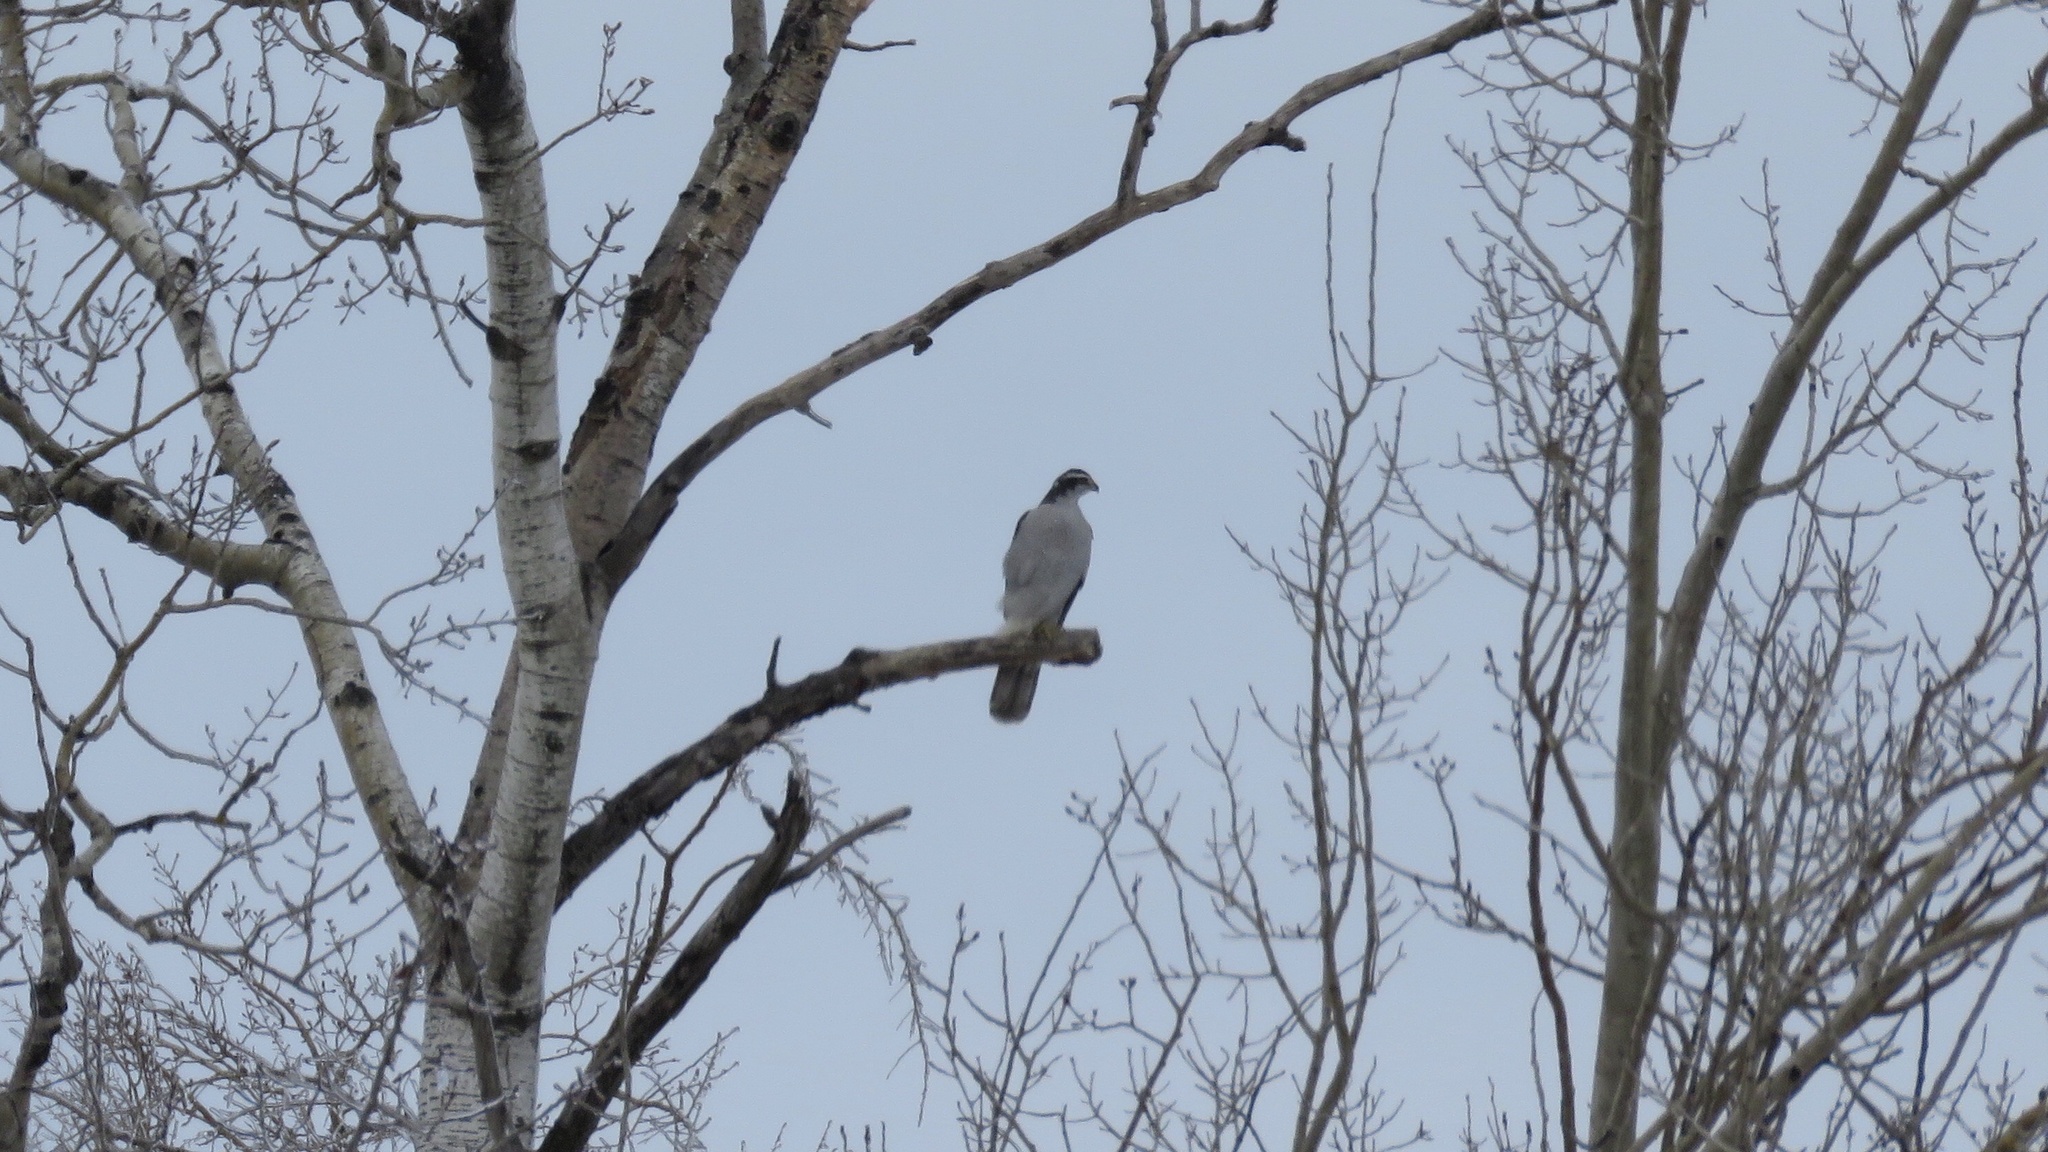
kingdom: Animalia
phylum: Chordata
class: Aves
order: Accipitriformes
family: Accipitridae
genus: Accipiter
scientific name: Accipiter gentilis
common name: Northern goshawk
